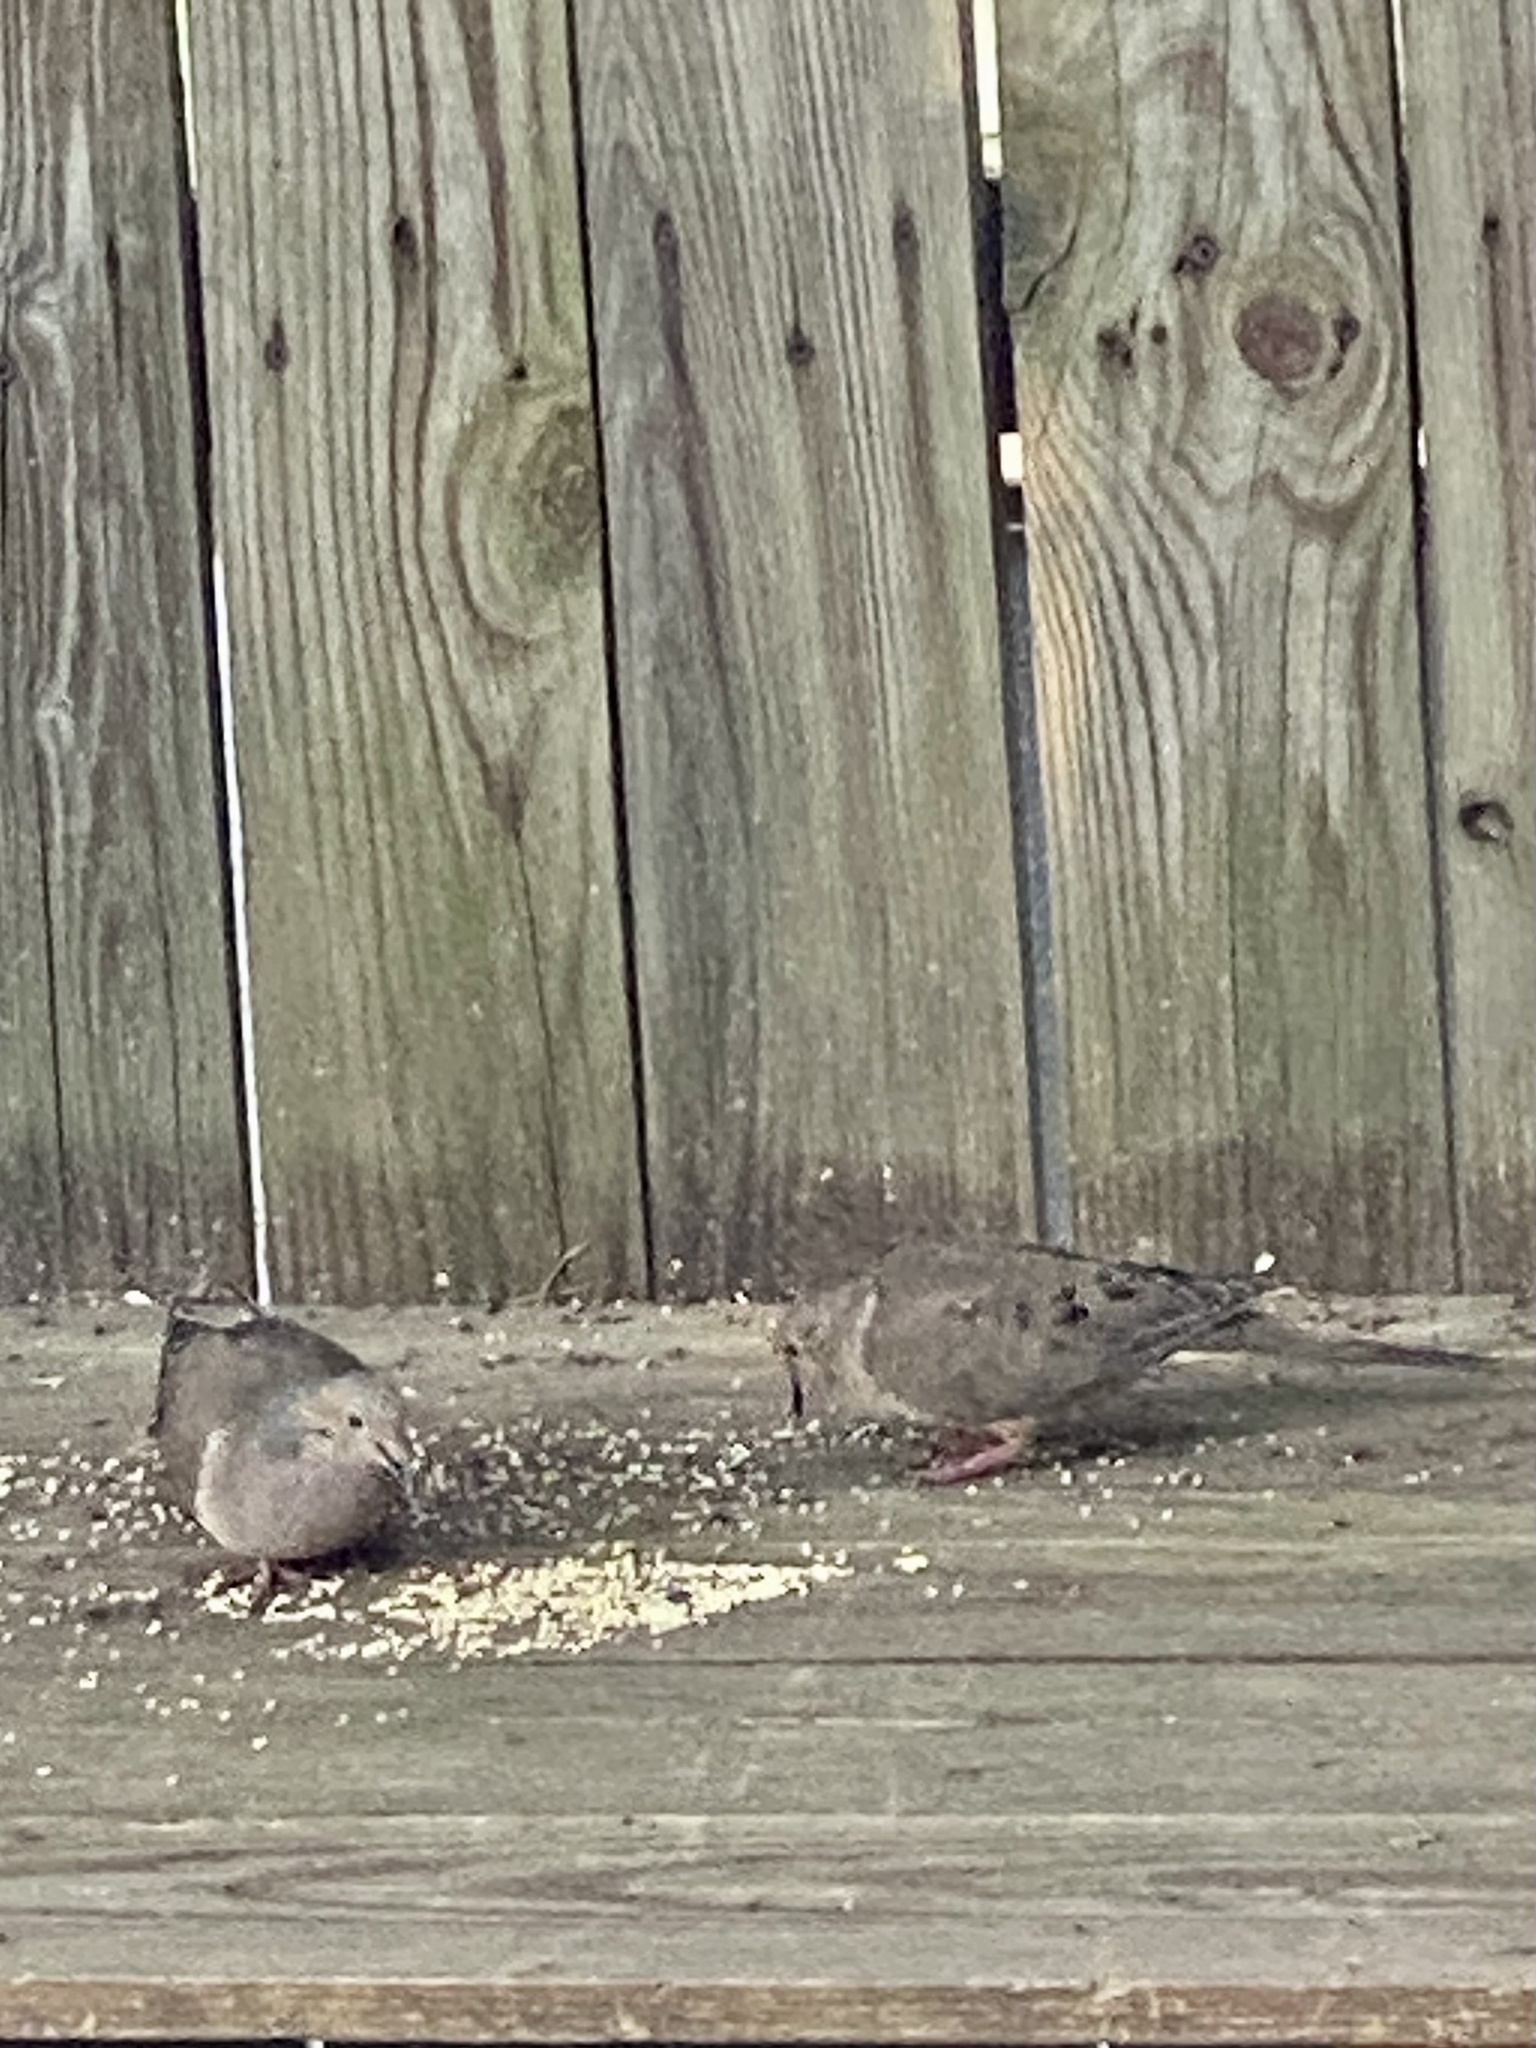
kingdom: Animalia
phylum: Chordata
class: Aves
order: Columbiformes
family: Columbidae
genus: Zenaida
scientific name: Zenaida macroura
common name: Mourning dove
